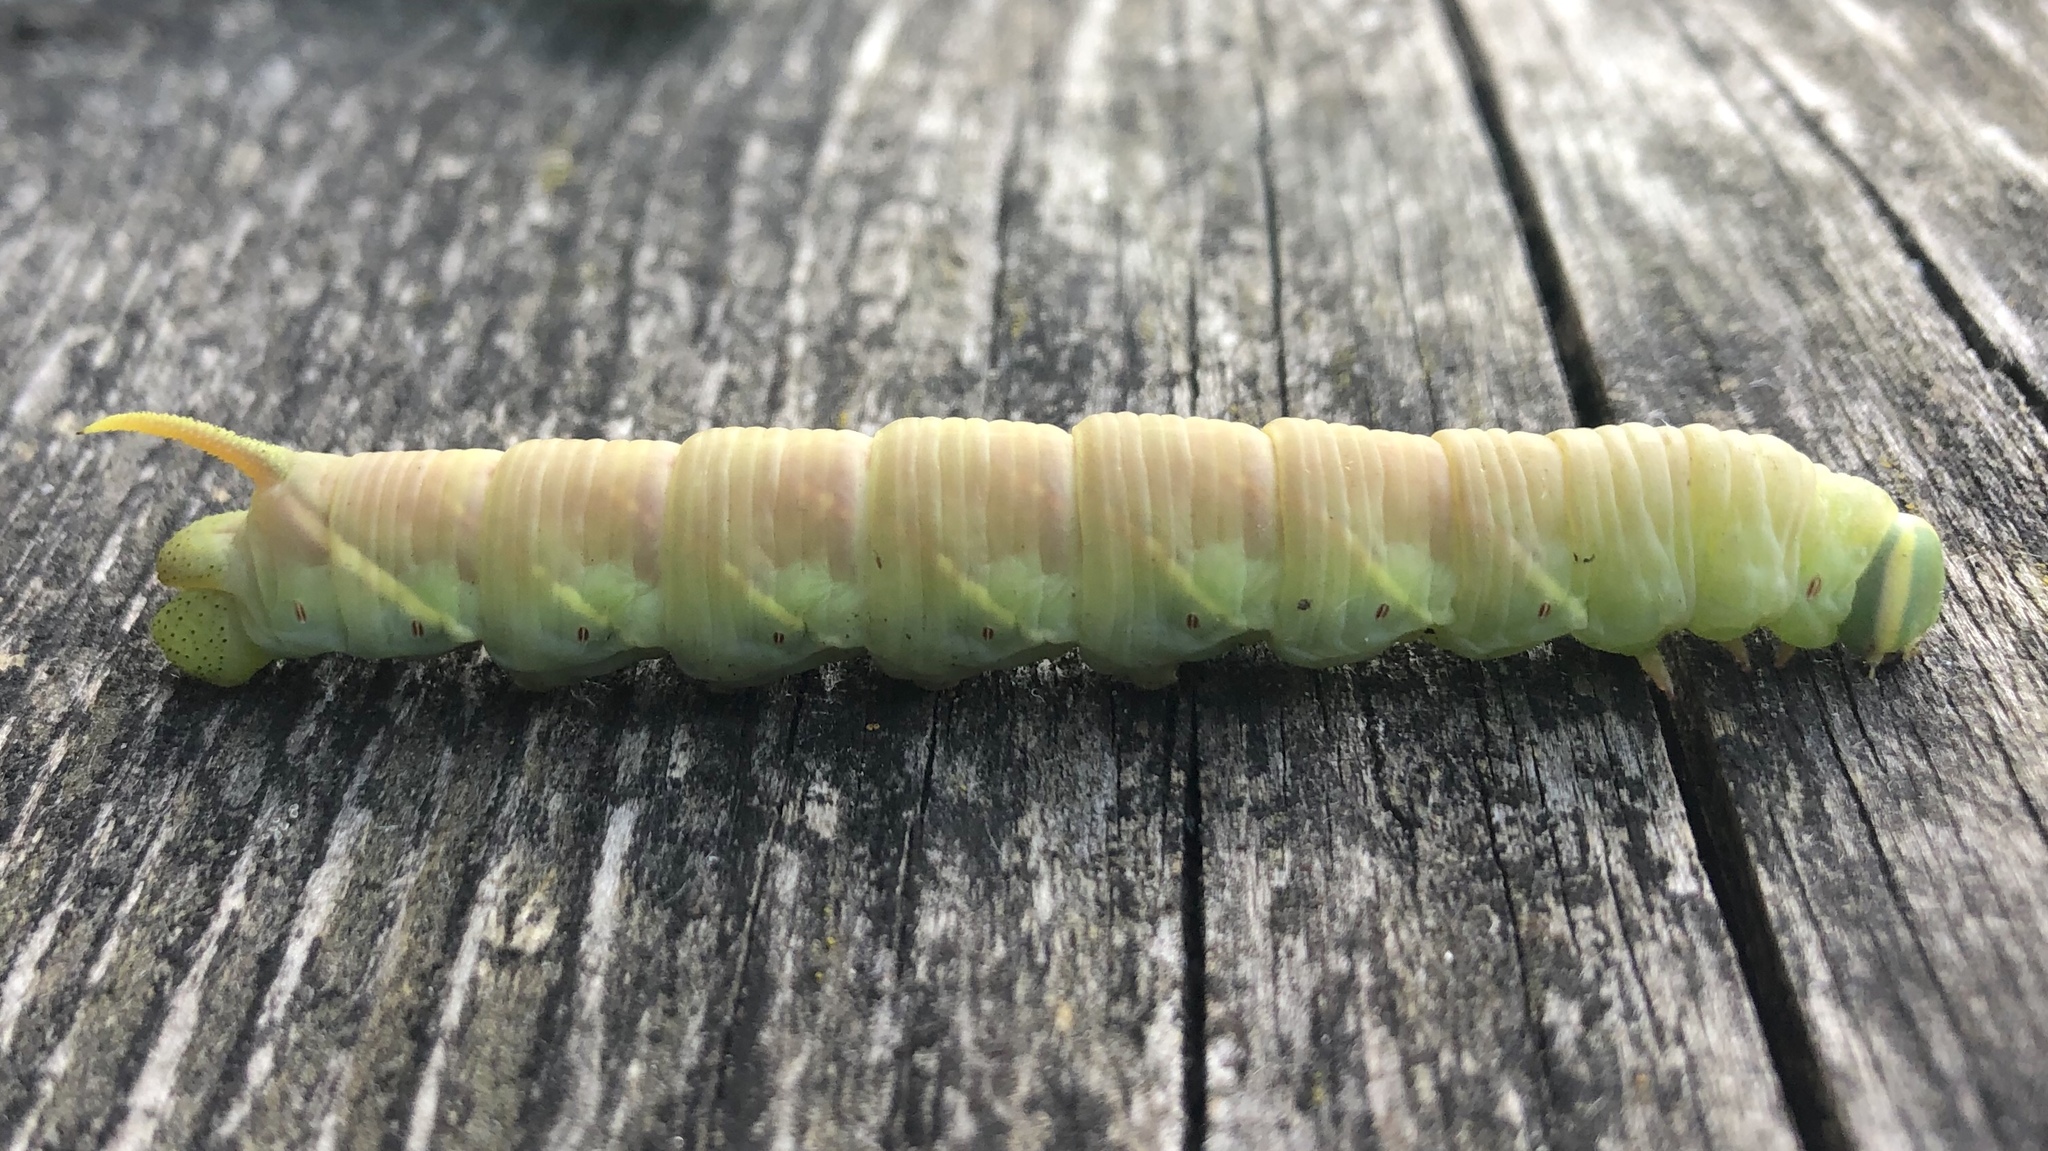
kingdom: Animalia
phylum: Arthropoda
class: Insecta
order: Lepidoptera
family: Sphingidae
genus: Ceratomia
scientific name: Ceratomia undulosa
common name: Waved sphinx
